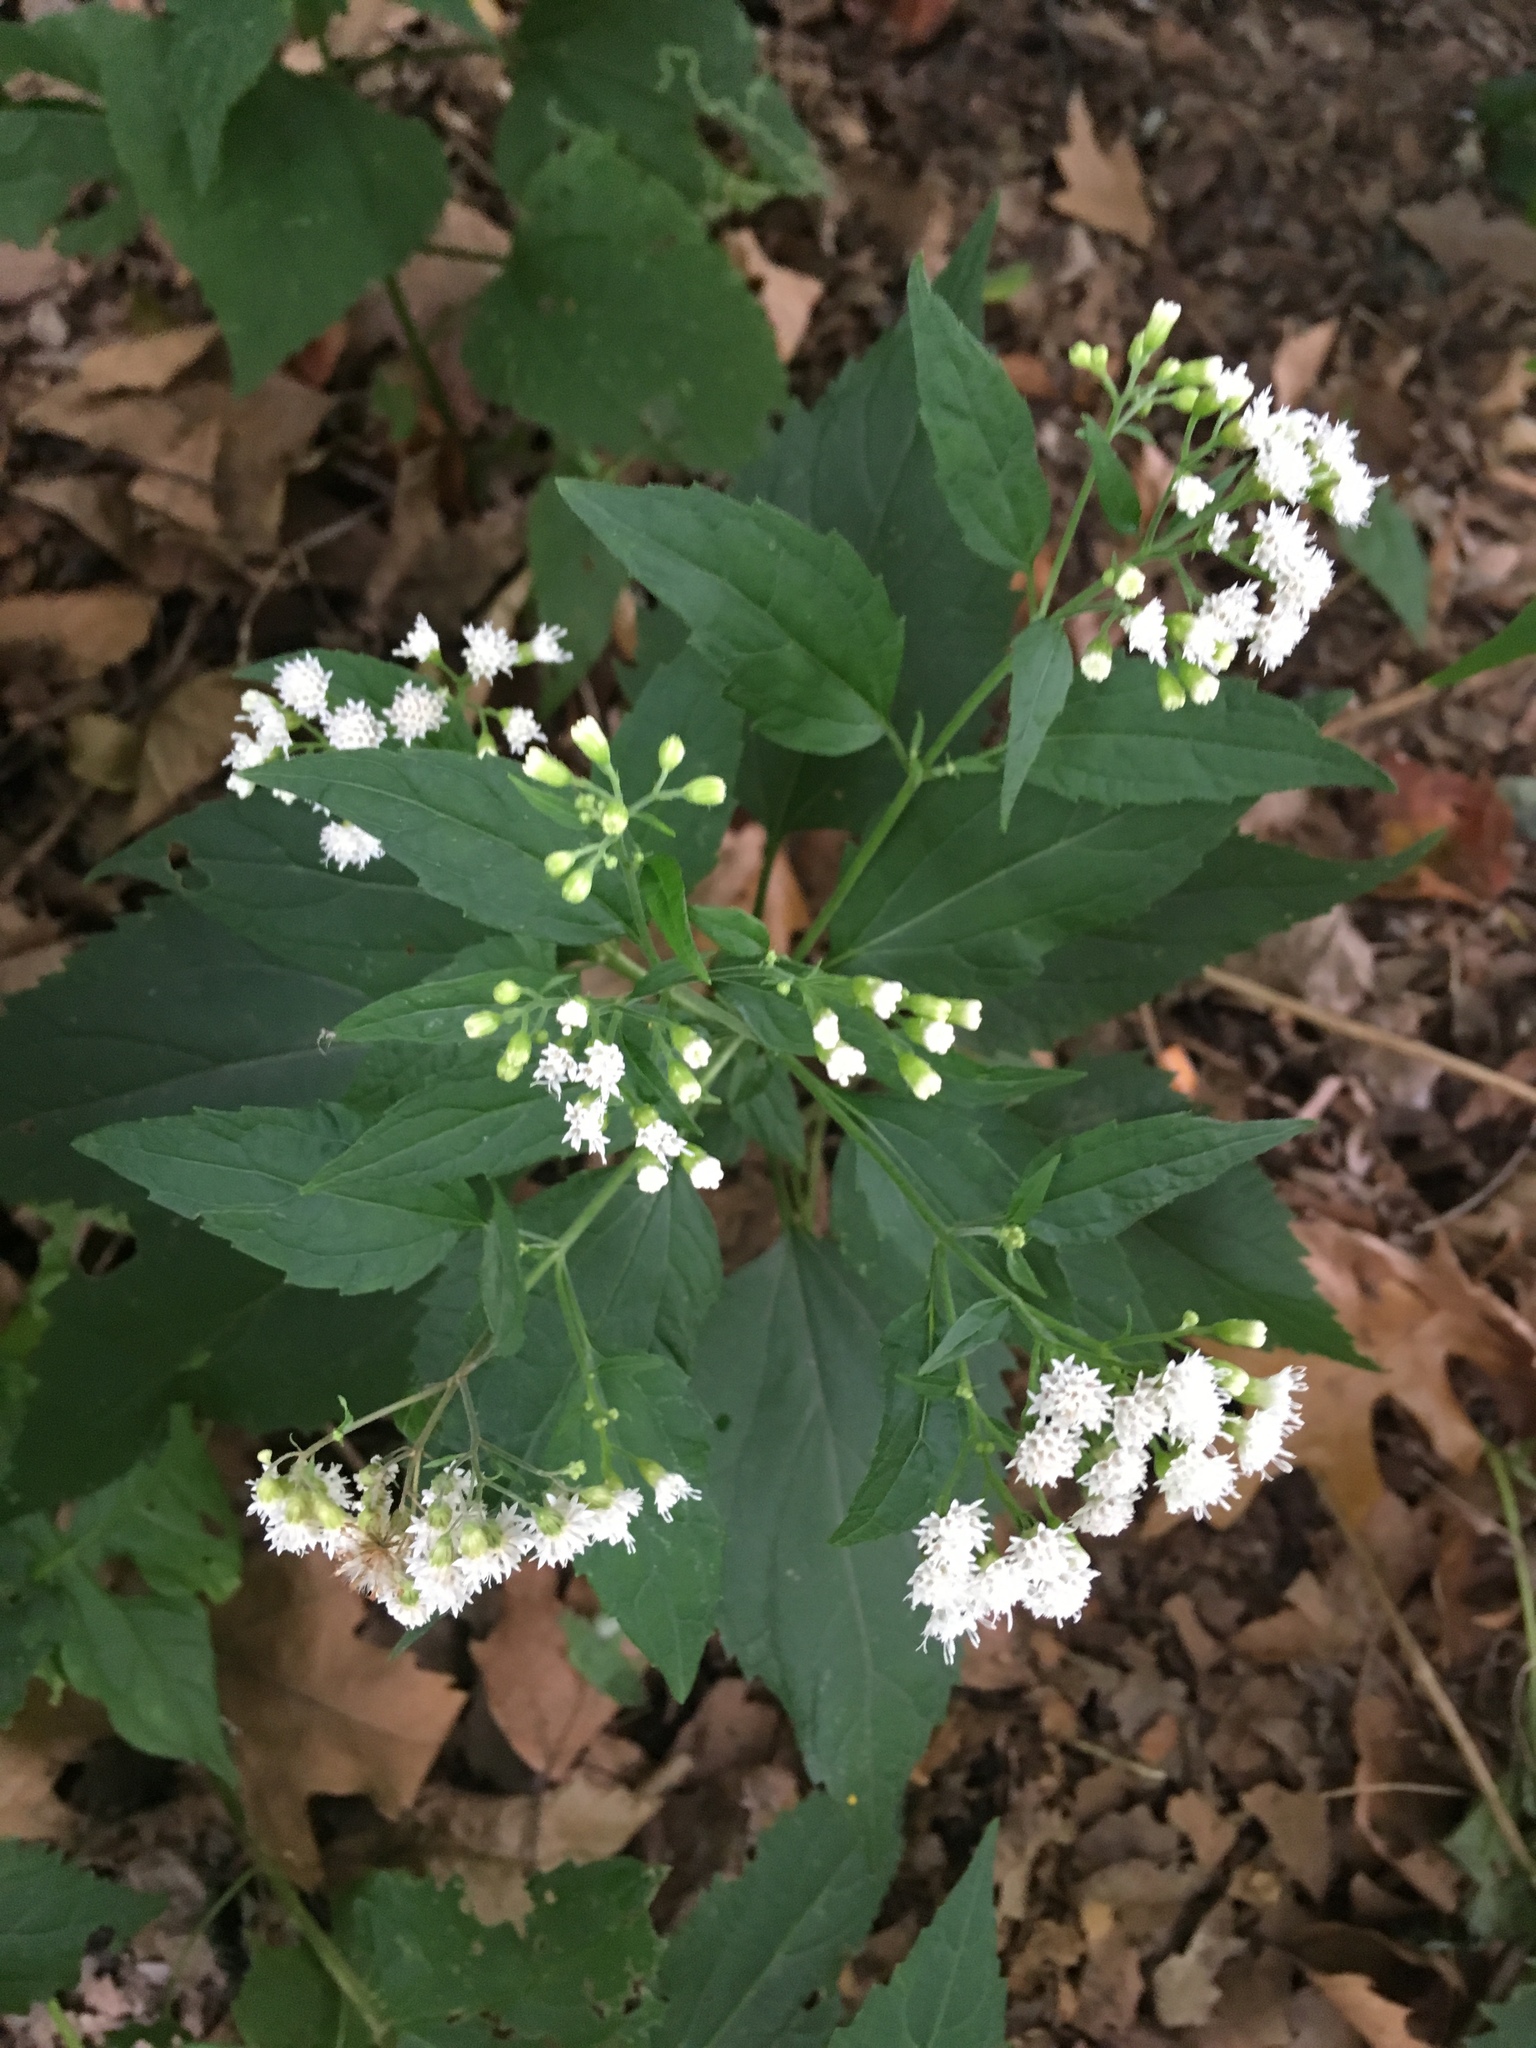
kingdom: Plantae
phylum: Tracheophyta
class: Magnoliopsida
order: Asterales
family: Asteraceae
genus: Ageratina
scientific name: Ageratina altissima
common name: White snakeroot
